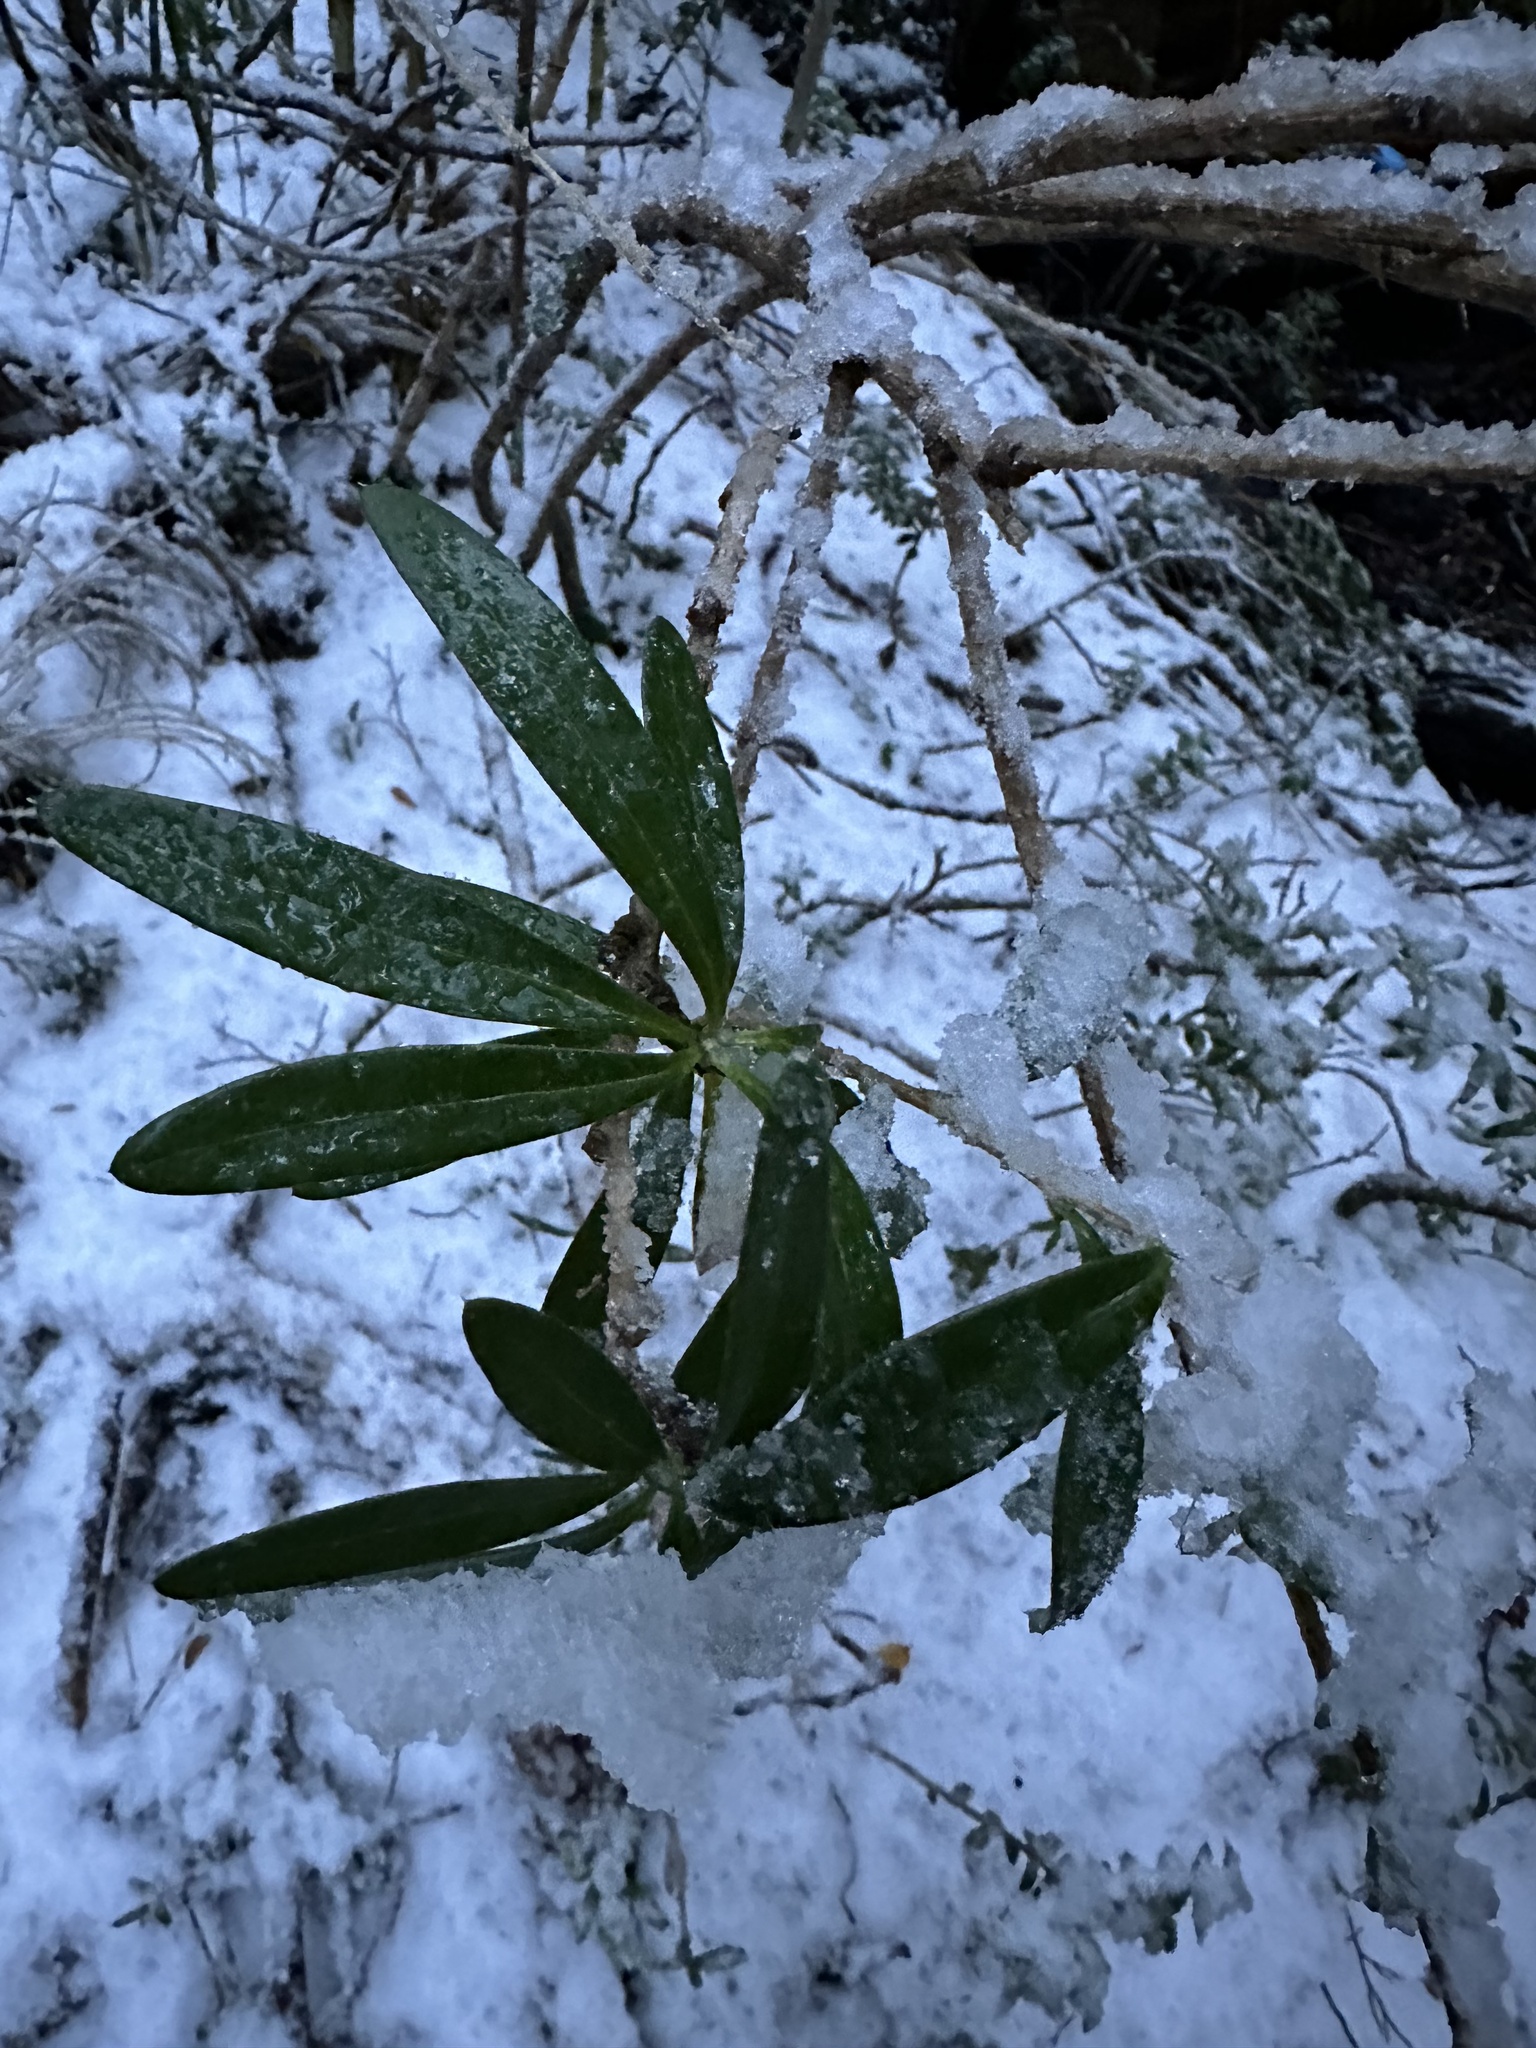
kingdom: Plantae
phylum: Tracheophyta
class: Magnoliopsida
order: Ranunculales
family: Berberidaceae
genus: Berberis
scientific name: Berberis trigona
